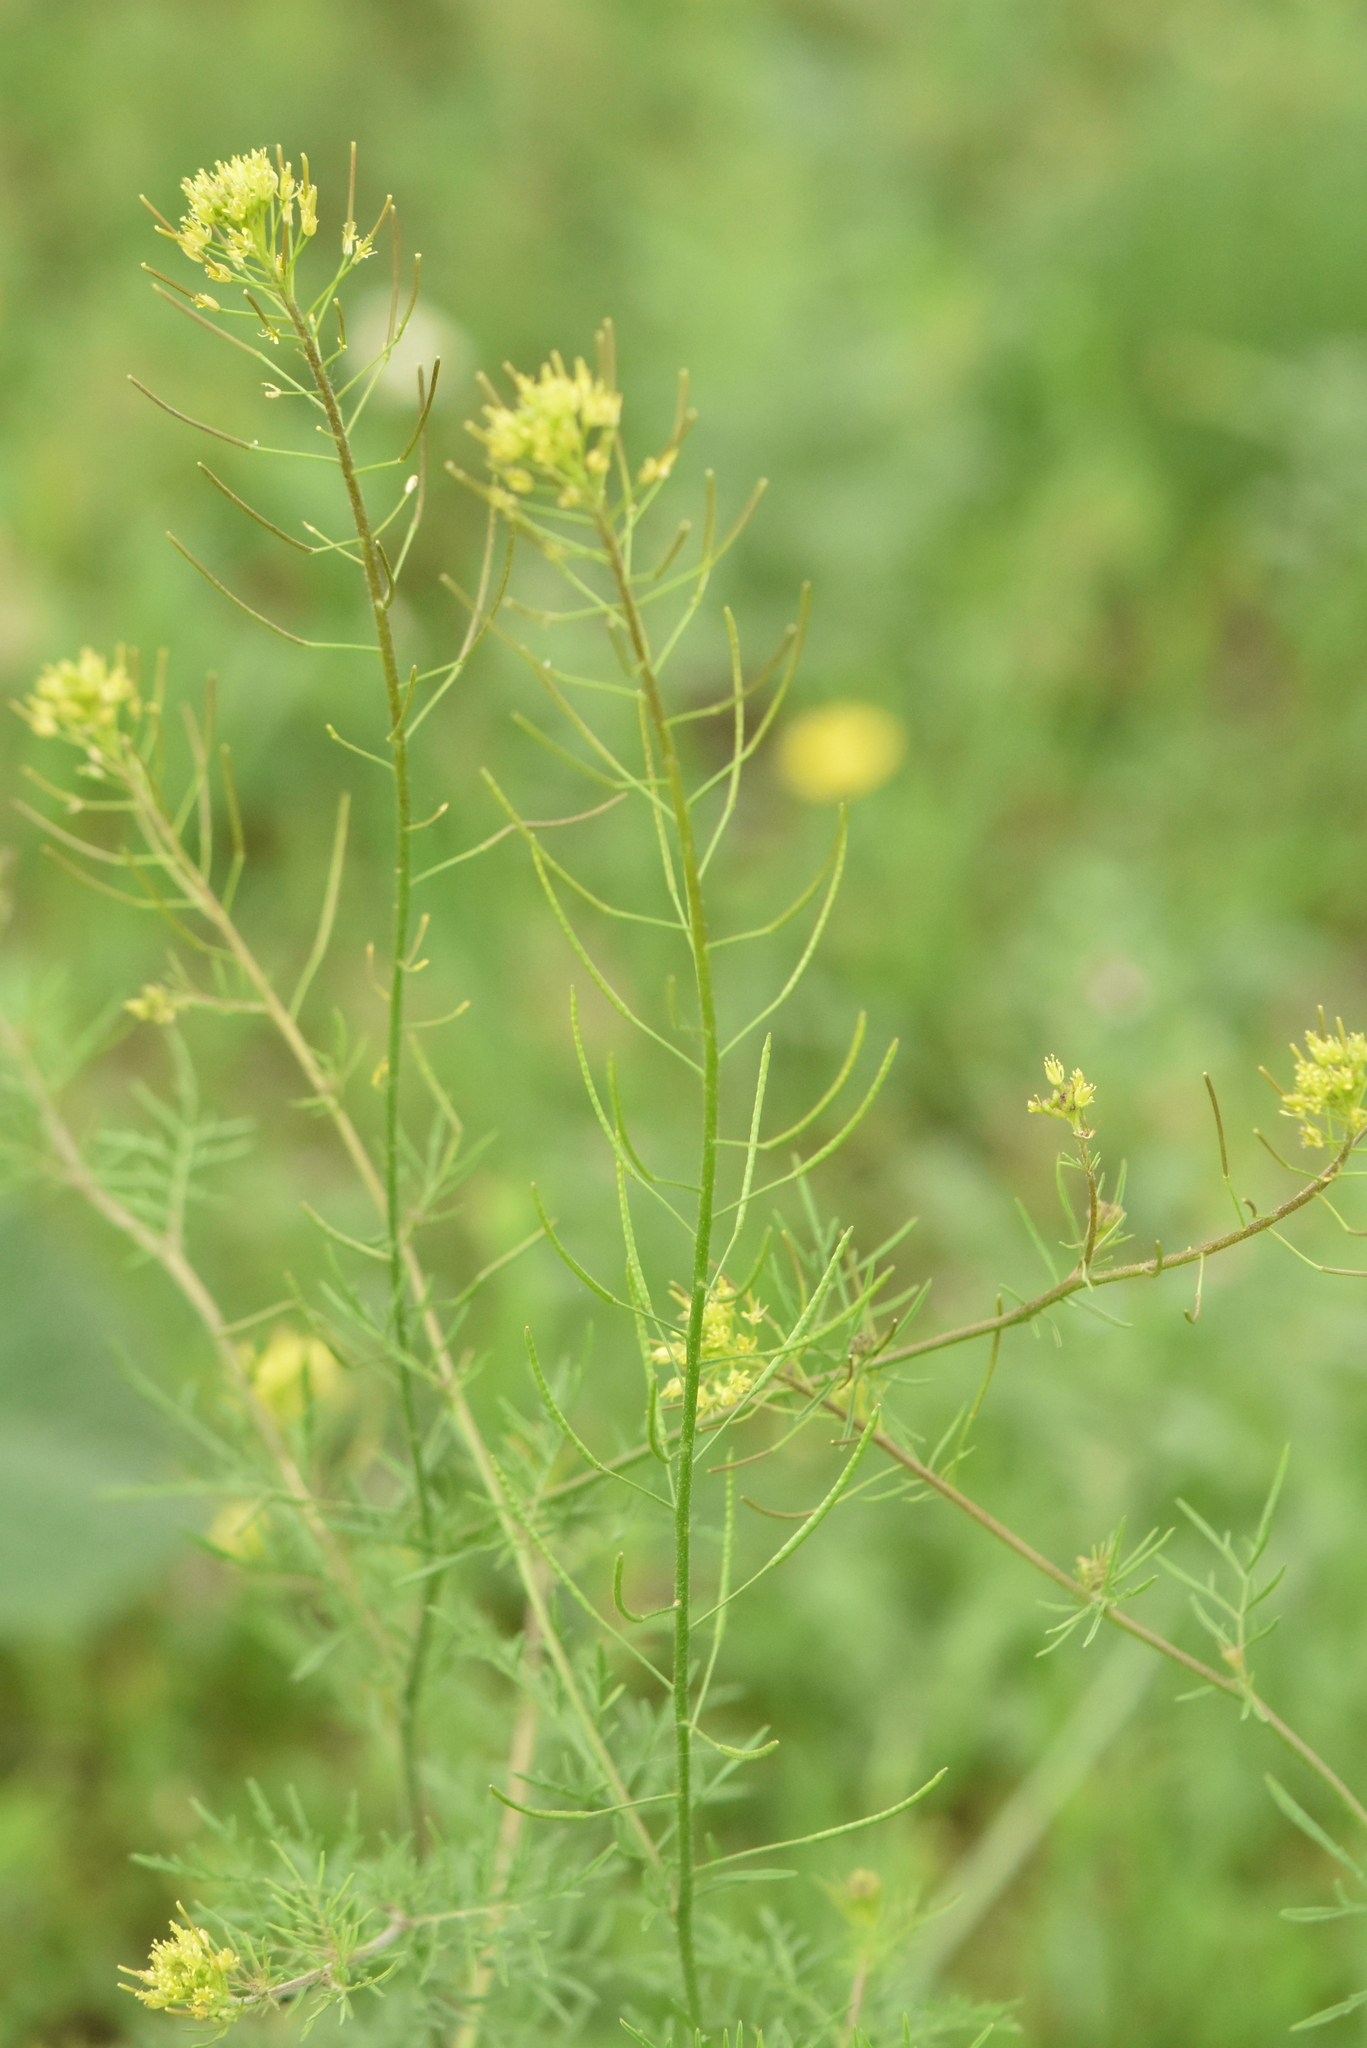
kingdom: Plantae
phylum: Tracheophyta
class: Magnoliopsida
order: Brassicales
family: Brassicaceae
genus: Descurainia
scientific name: Descurainia sophia
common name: Flixweed
